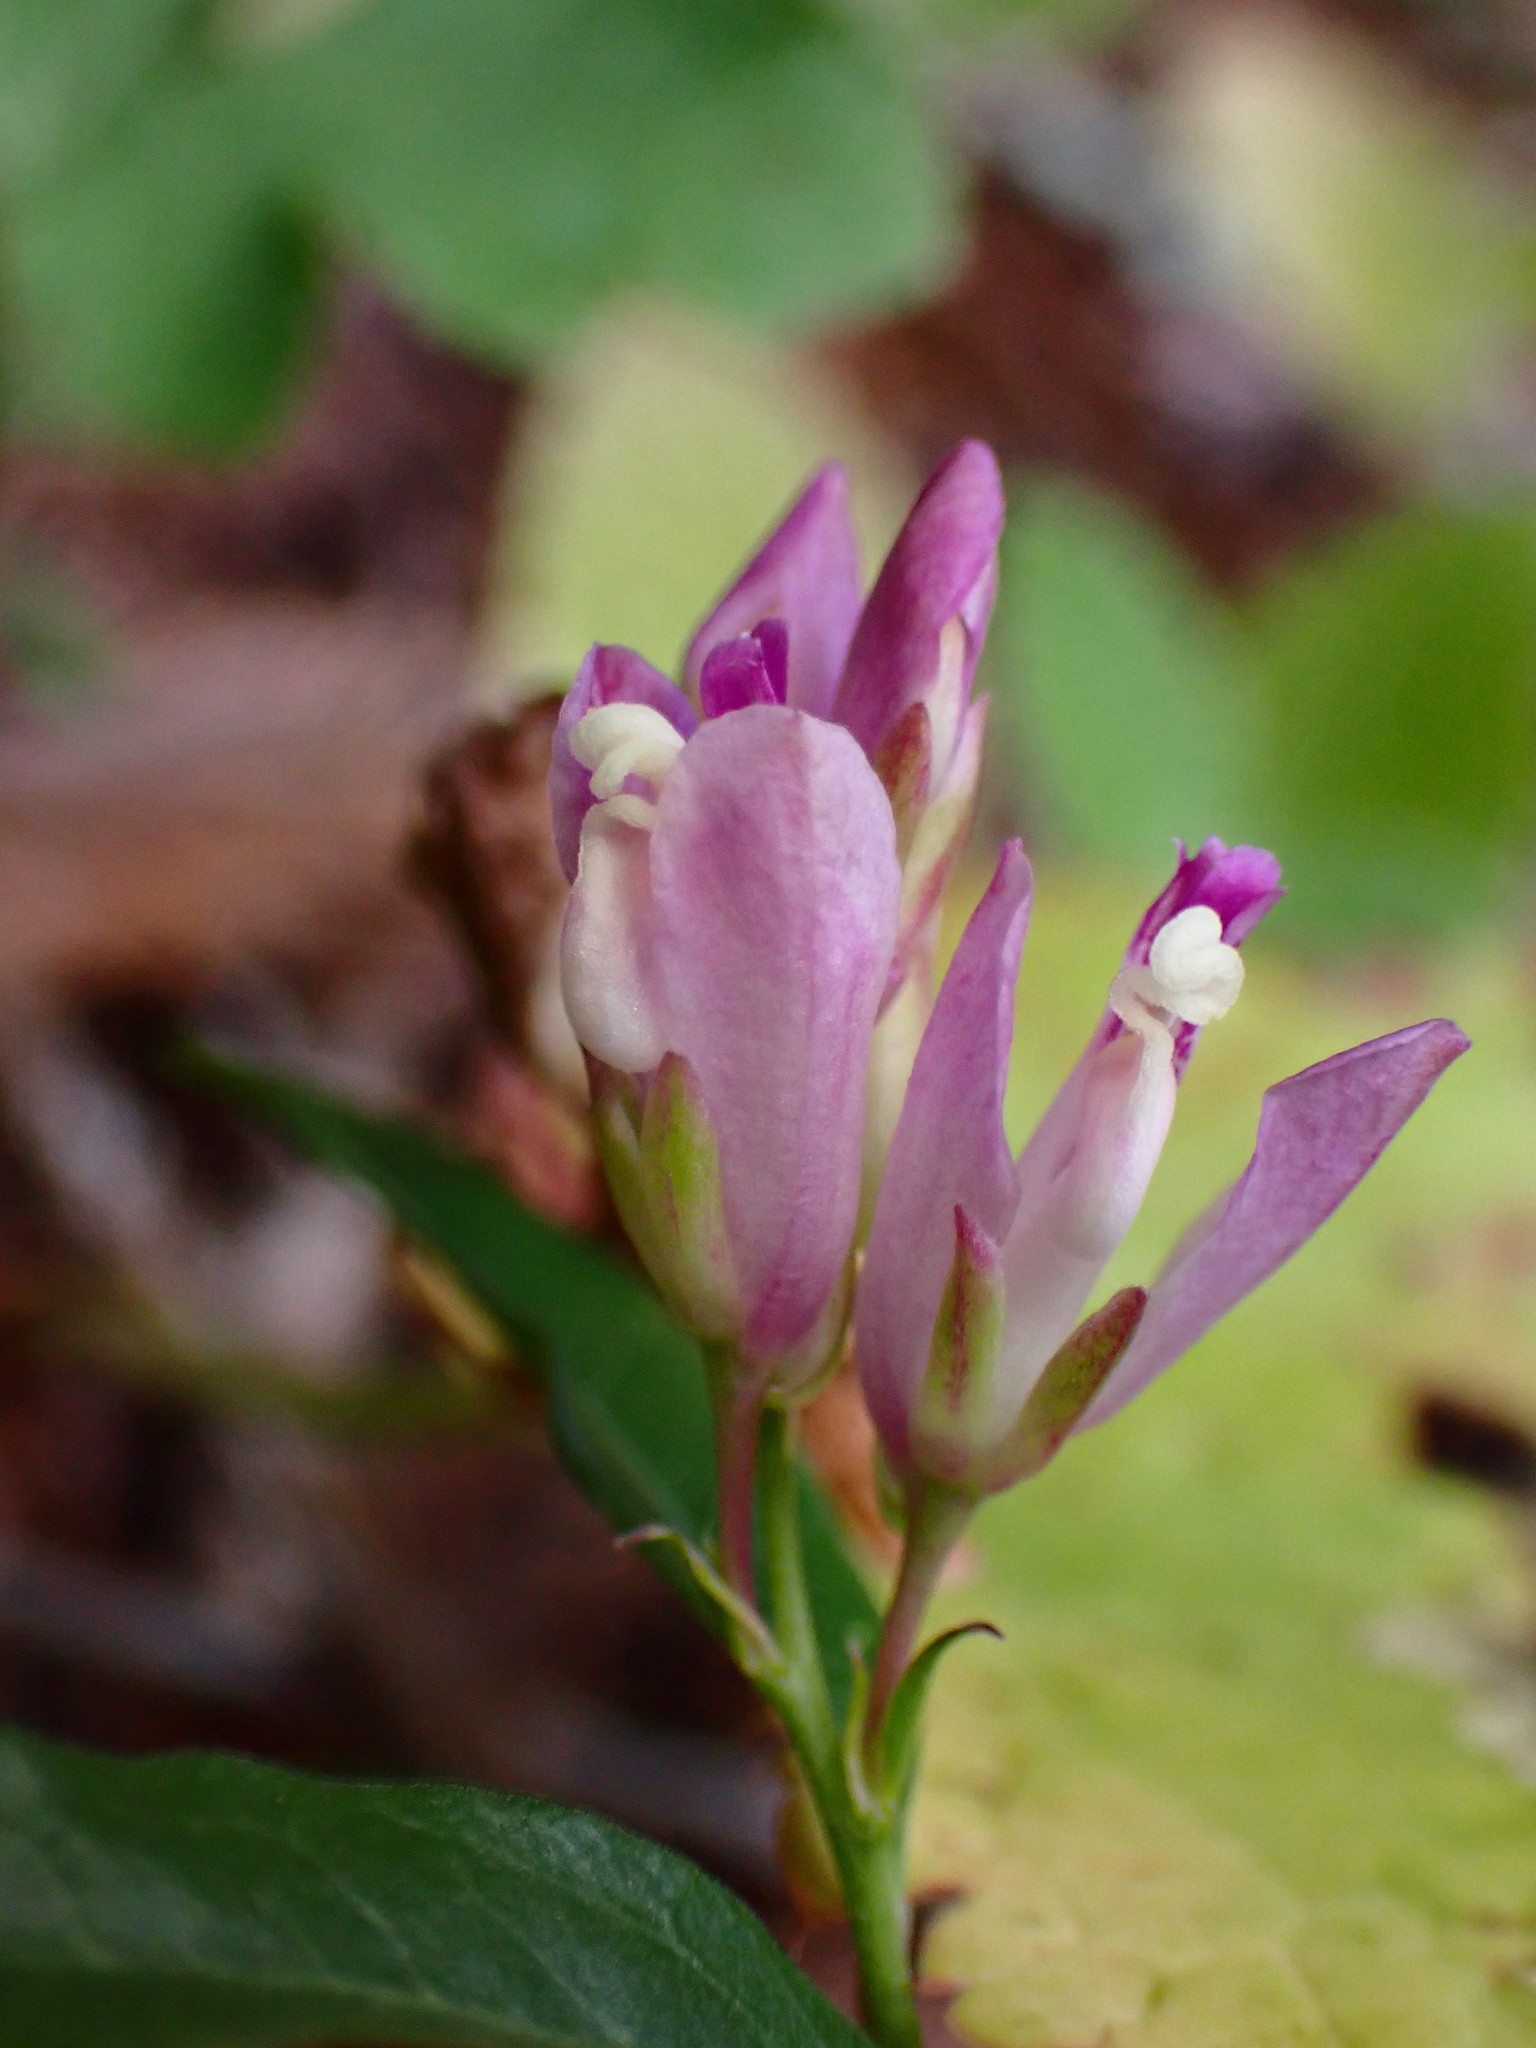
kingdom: Plantae
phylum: Tracheophyta
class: Magnoliopsida
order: Fabales
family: Polygalaceae
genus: Rhinotropis
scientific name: Rhinotropis californica
